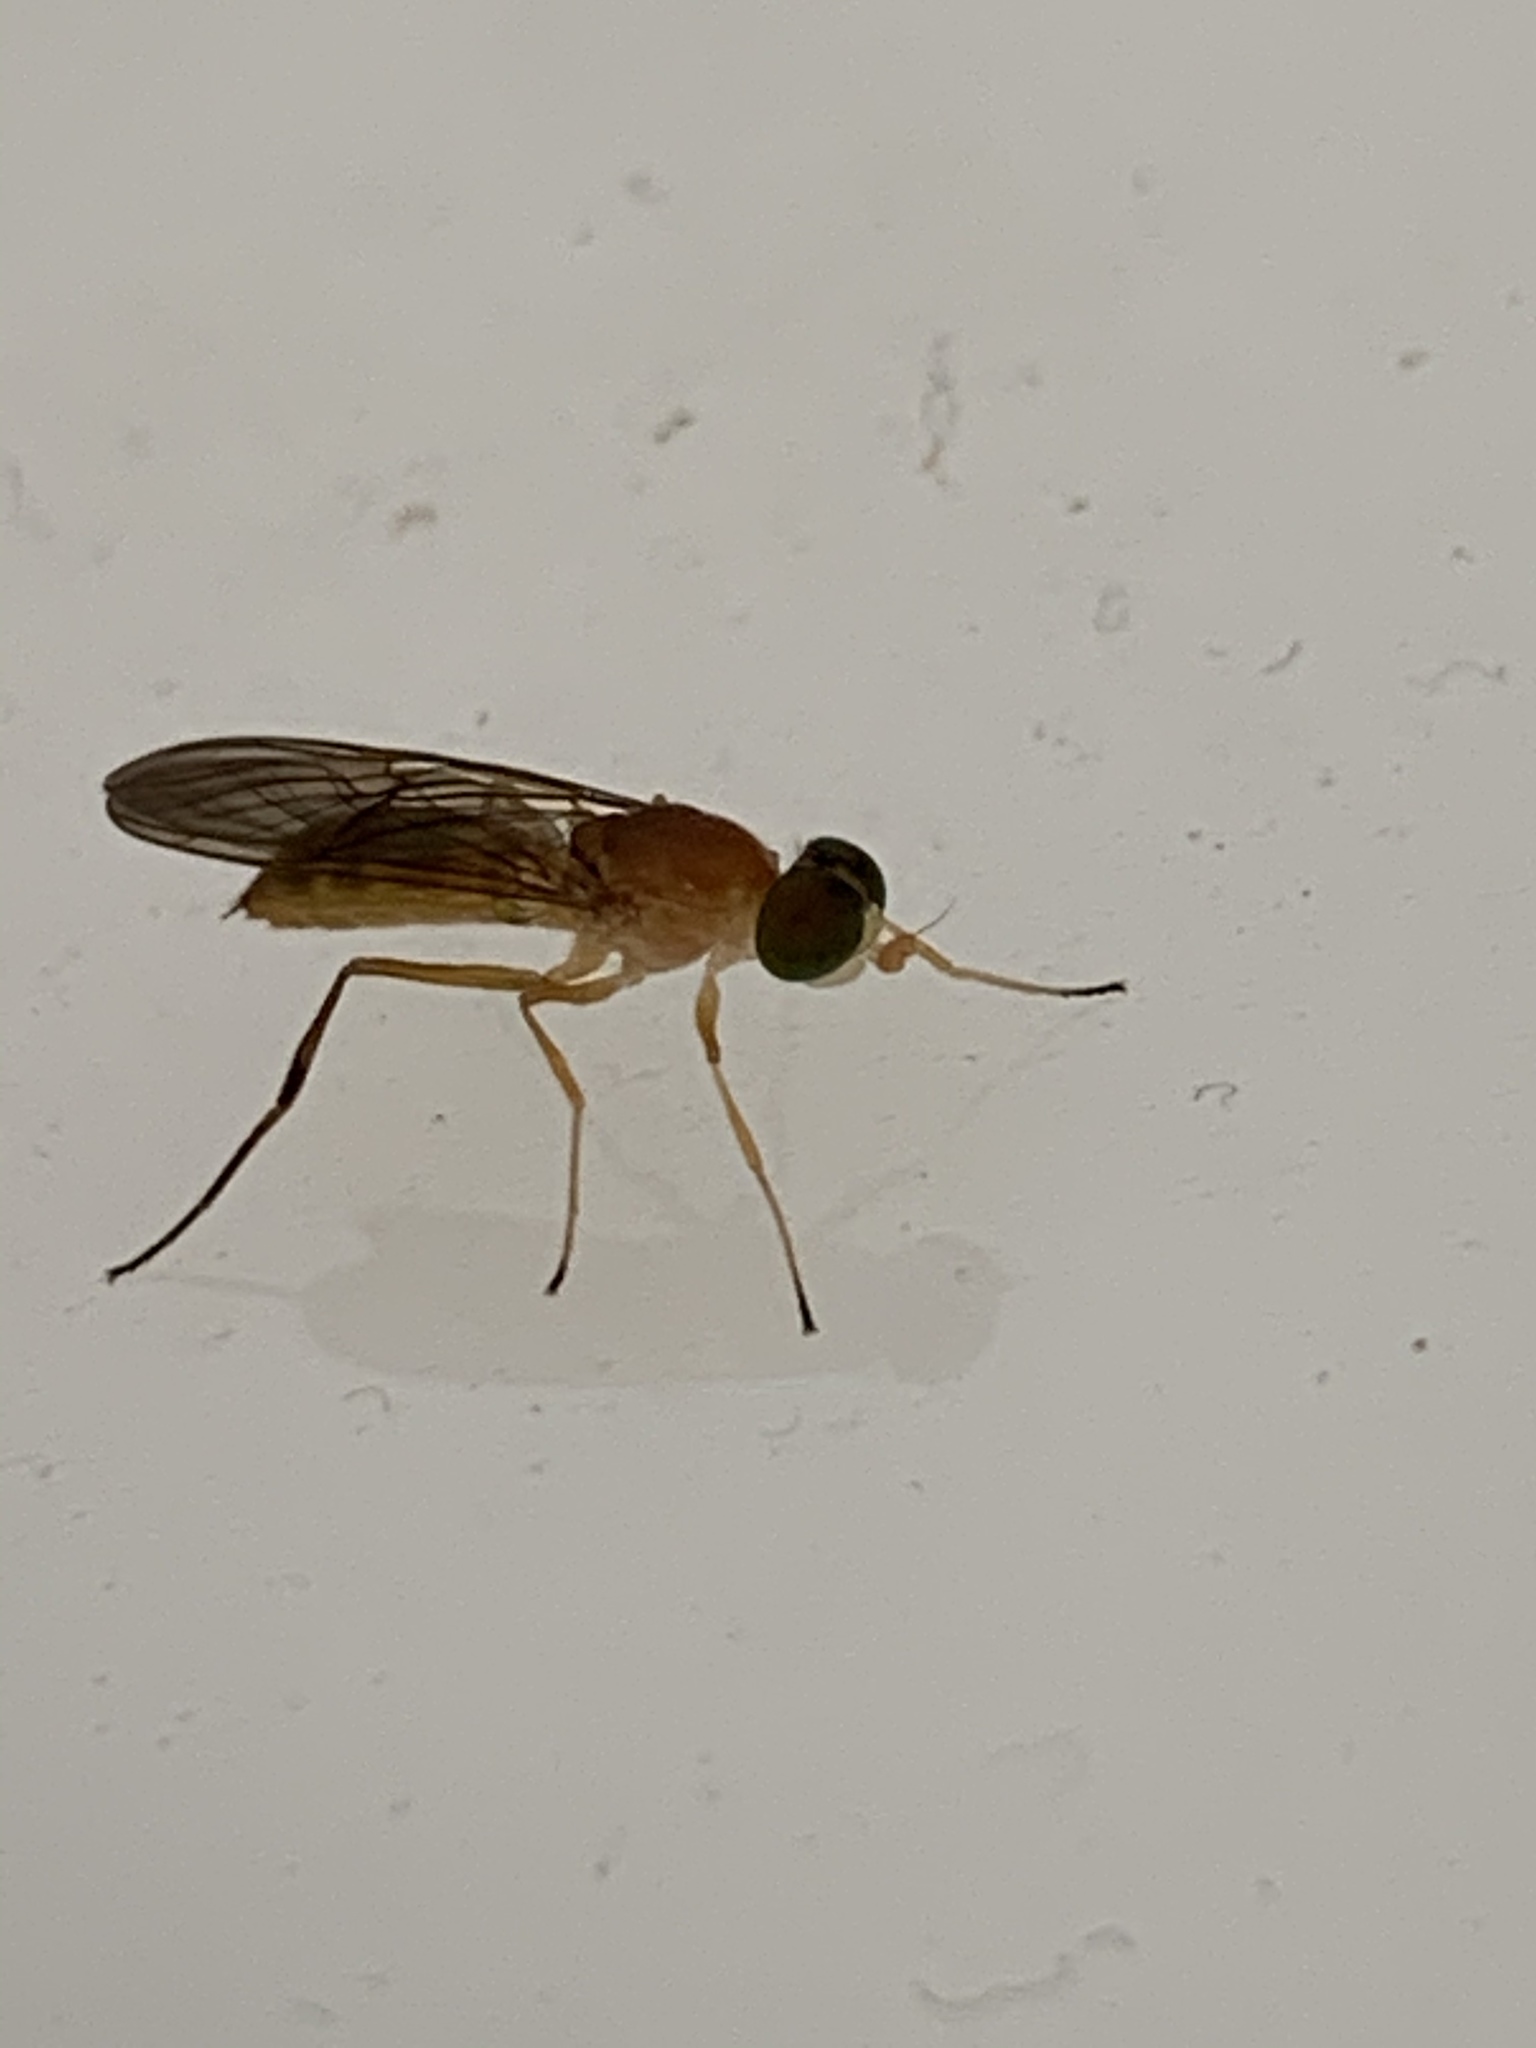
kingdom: Animalia
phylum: Arthropoda
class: Insecta
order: Diptera
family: Stratiomyidae
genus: Ptecticus
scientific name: Ptecticus trivittatus
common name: Compost fly
